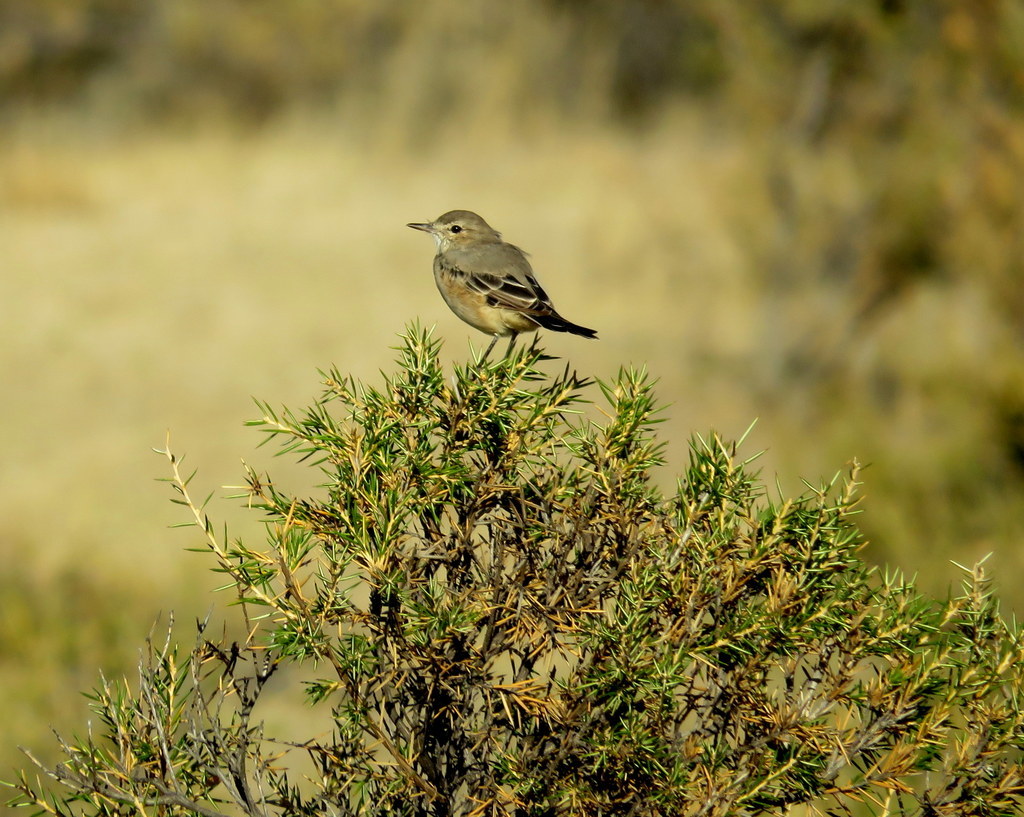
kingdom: Animalia
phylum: Chordata
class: Aves
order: Passeriformes
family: Tyrannidae
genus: Agriornis
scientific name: Agriornis murinus
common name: Lesser shrike-tyrant
